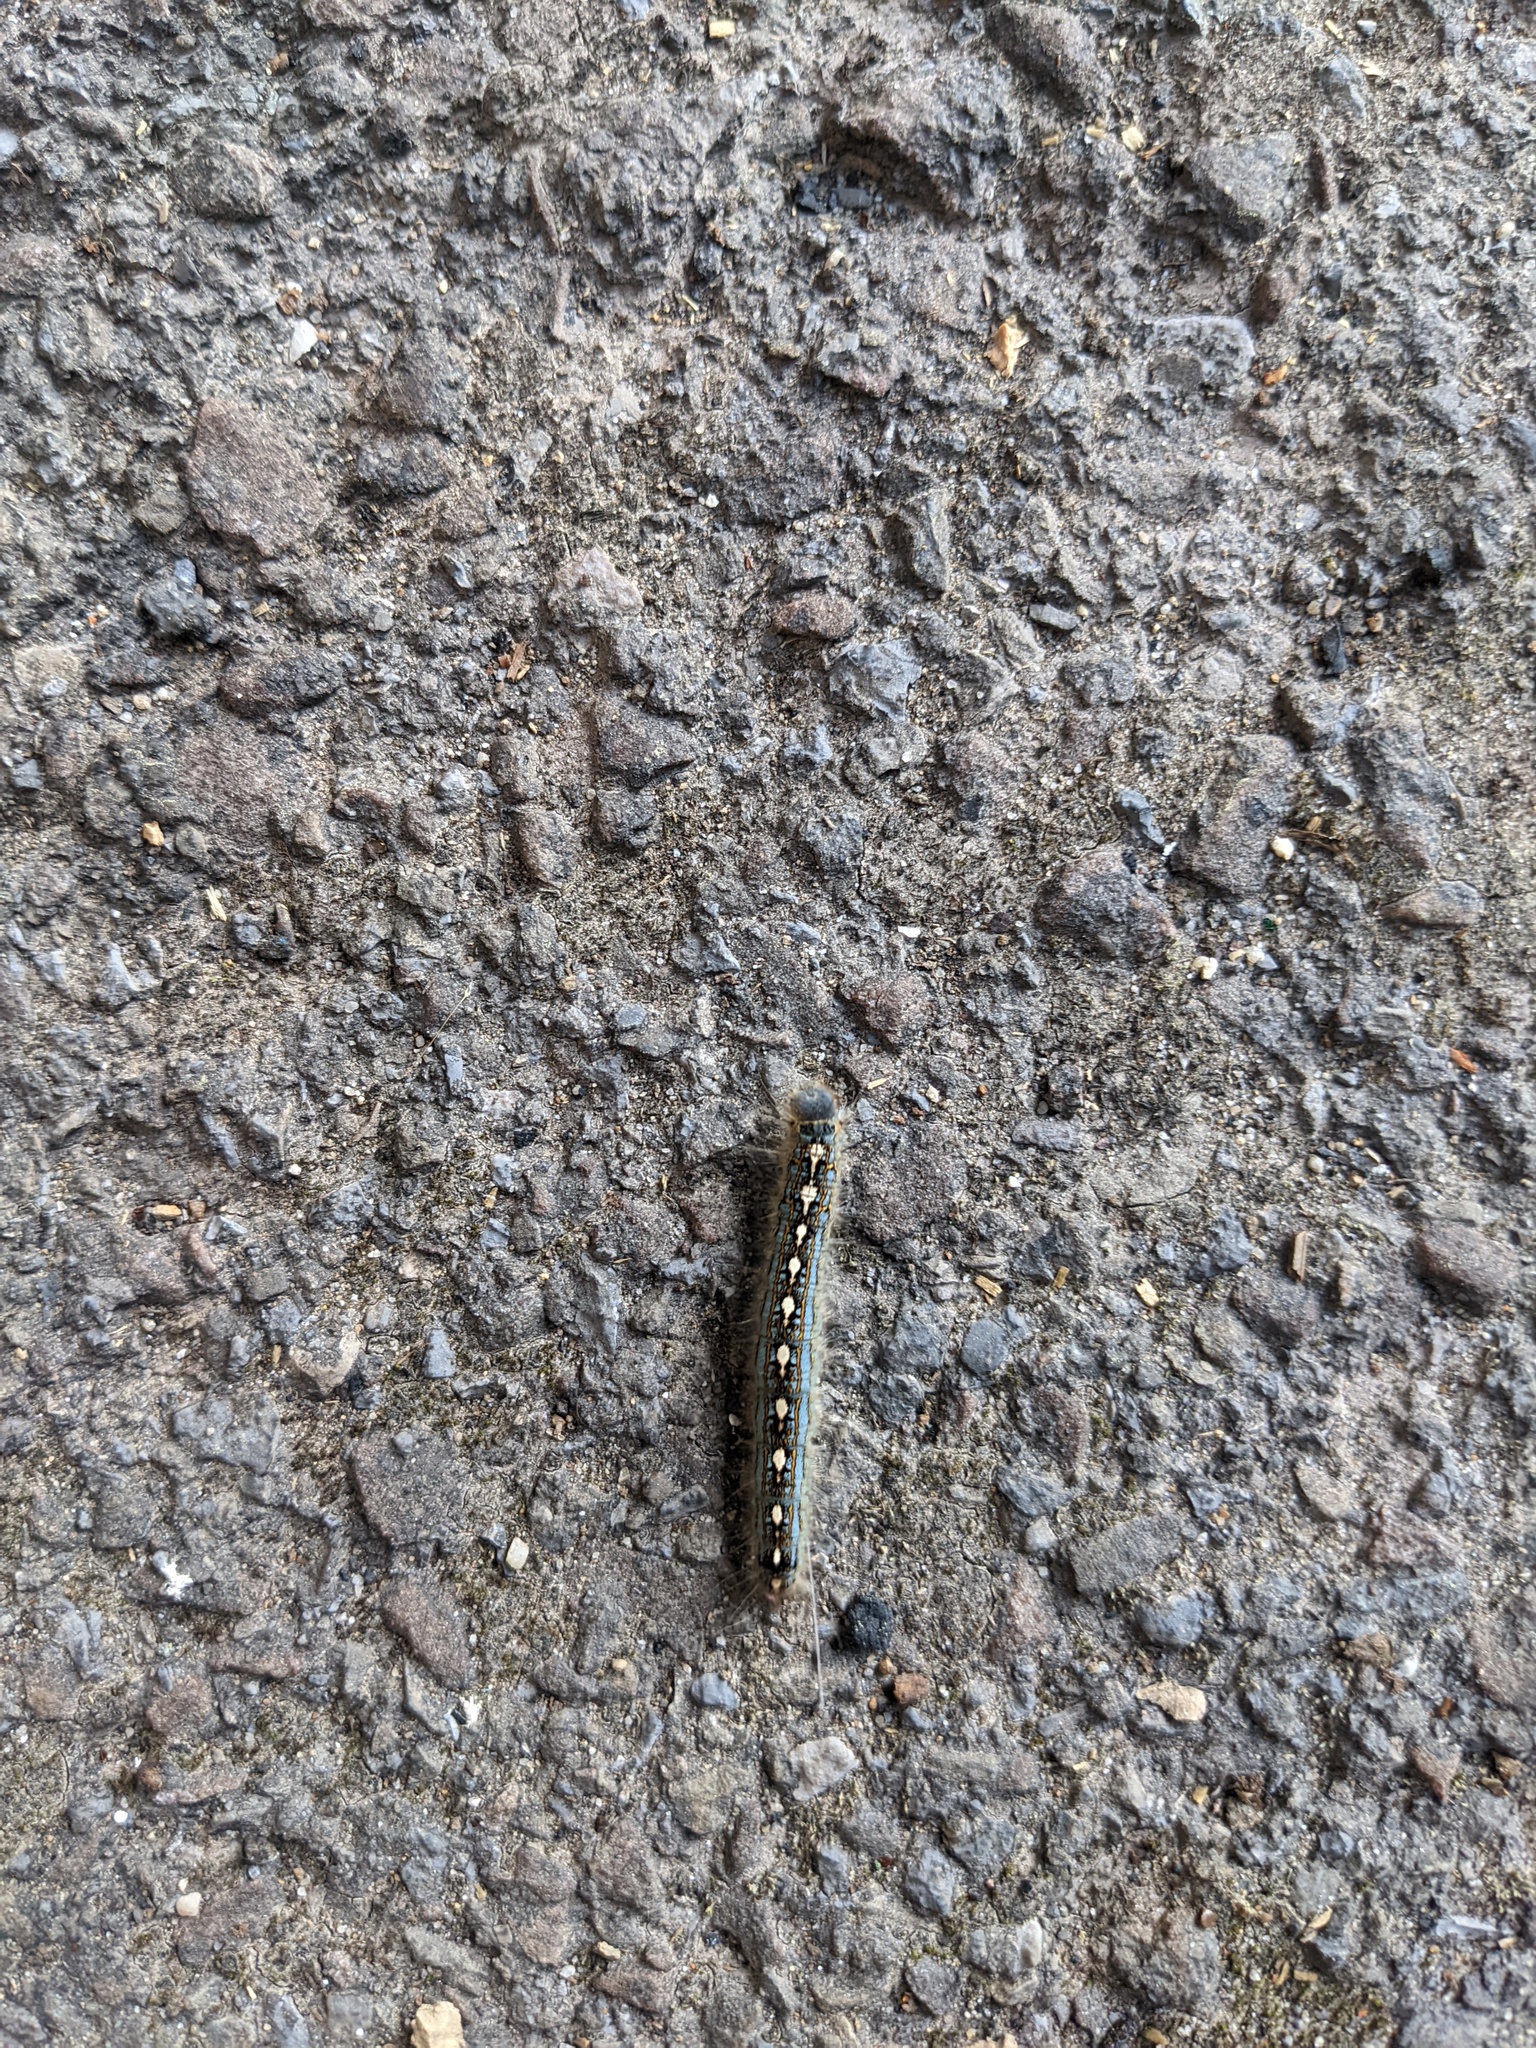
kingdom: Animalia
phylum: Arthropoda
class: Insecta
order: Lepidoptera
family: Lasiocampidae
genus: Malacosoma
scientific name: Malacosoma disstria
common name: Forest tent caterpillar
